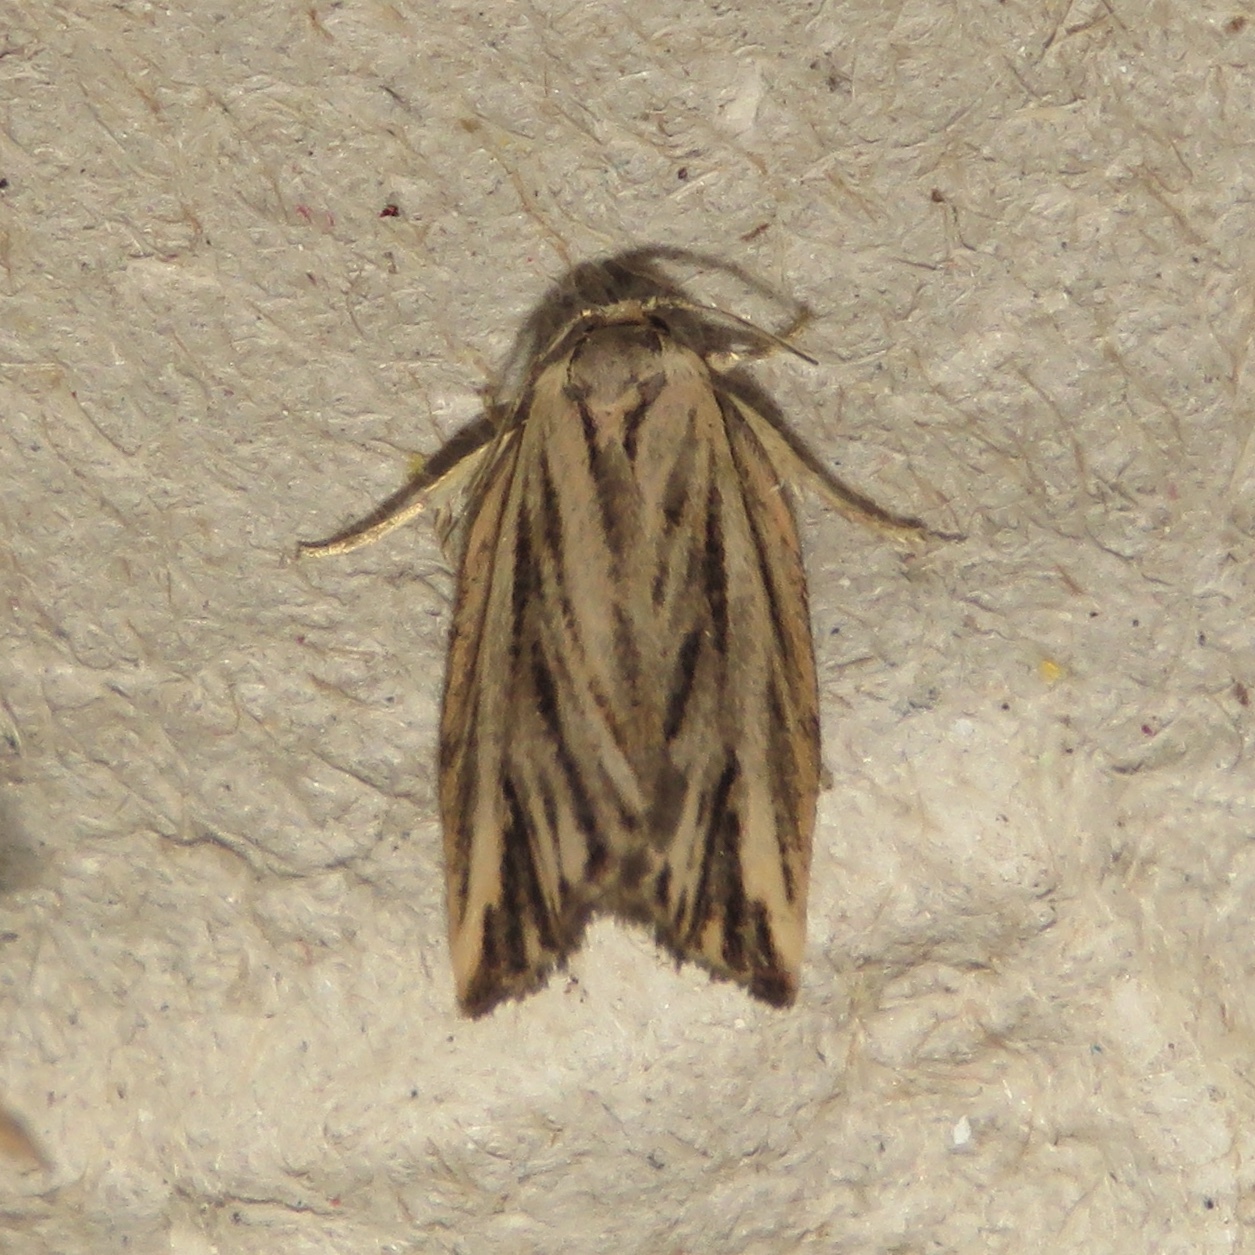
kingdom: Animalia
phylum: Arthropoda
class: Insecta
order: Lepidoptera
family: Tortricidae
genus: Archips
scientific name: Archips strianus
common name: Striated tortrix moth
